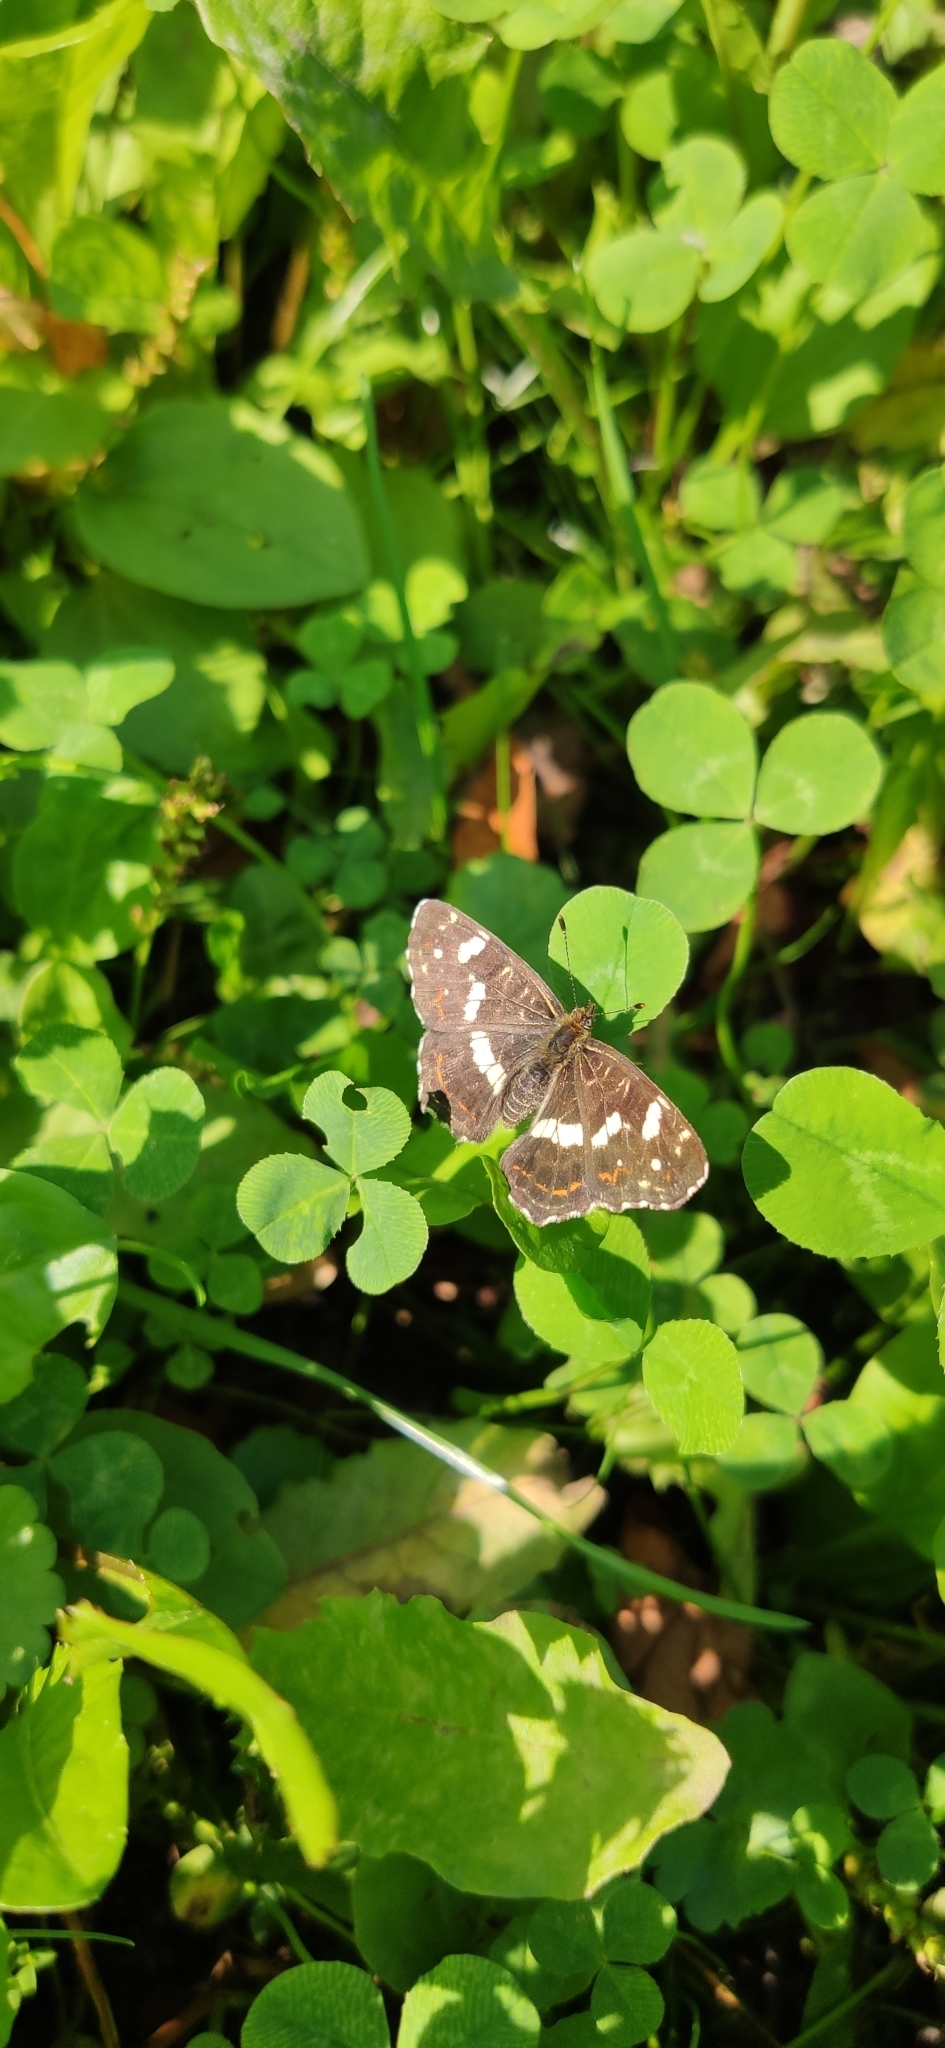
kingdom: Animalia
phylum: Arthropoda
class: Insecta
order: Lepidoptera
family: Nymphalidae
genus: Araschnia
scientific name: Araschnia levana
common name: Map butterfly
